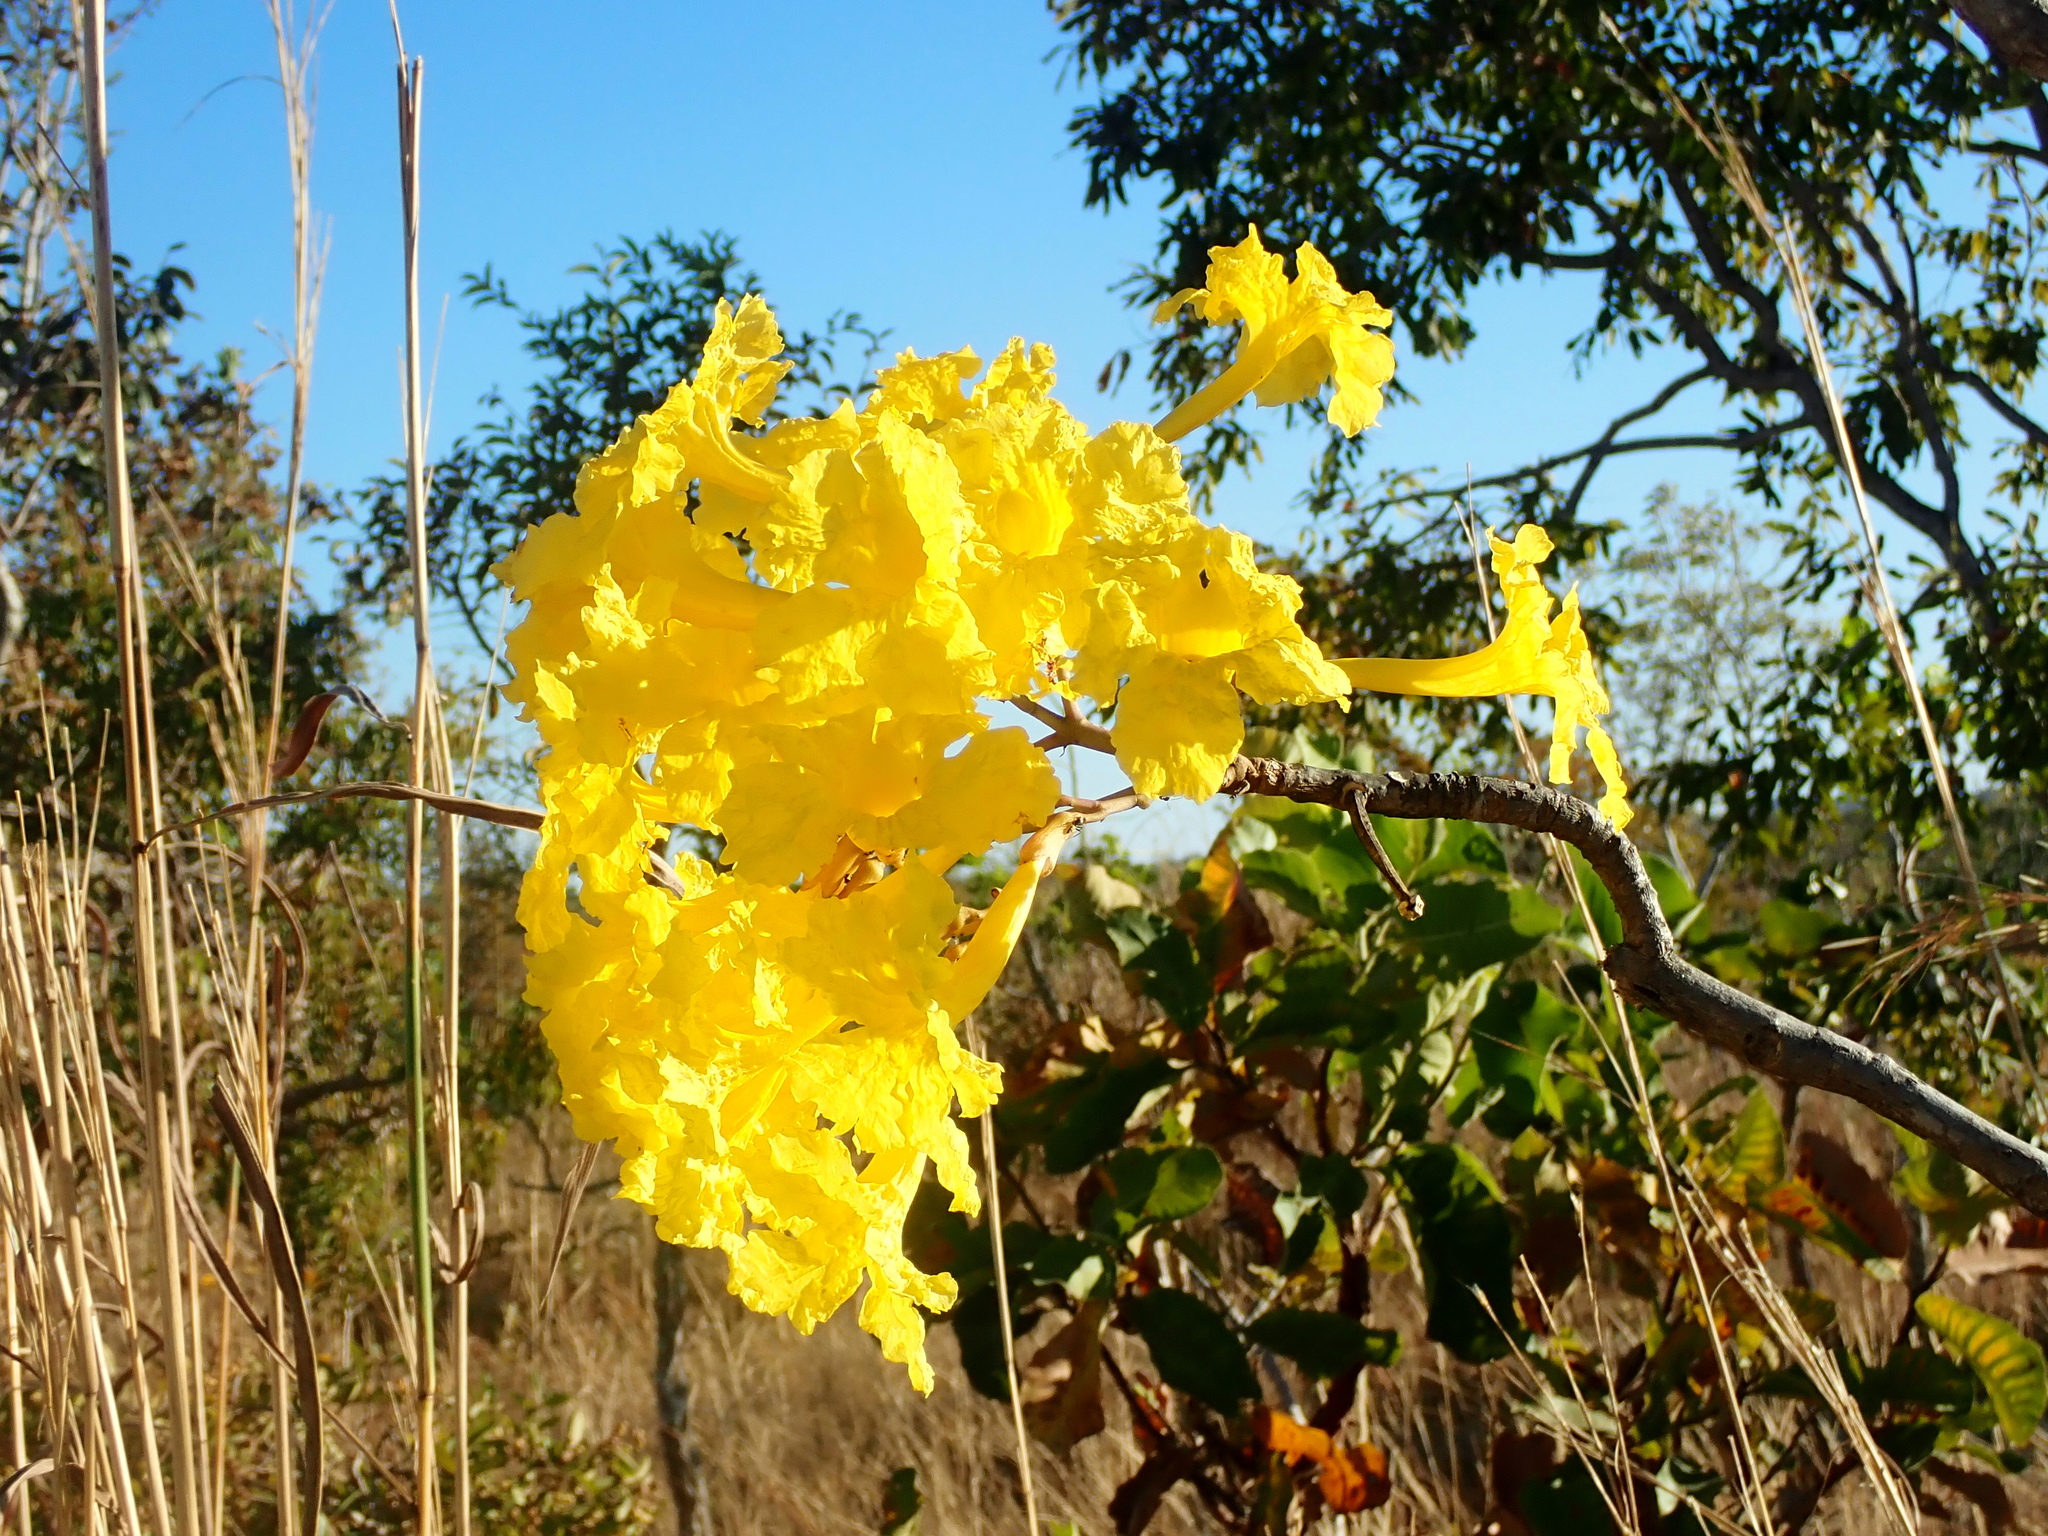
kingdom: Plantae
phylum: Tracheophyta
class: Magnoliopsida
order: Lamiales
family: Bignoniaceae
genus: Tabebuia
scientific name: Tabebuia aurea
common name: Caribbean trumpet-tree
